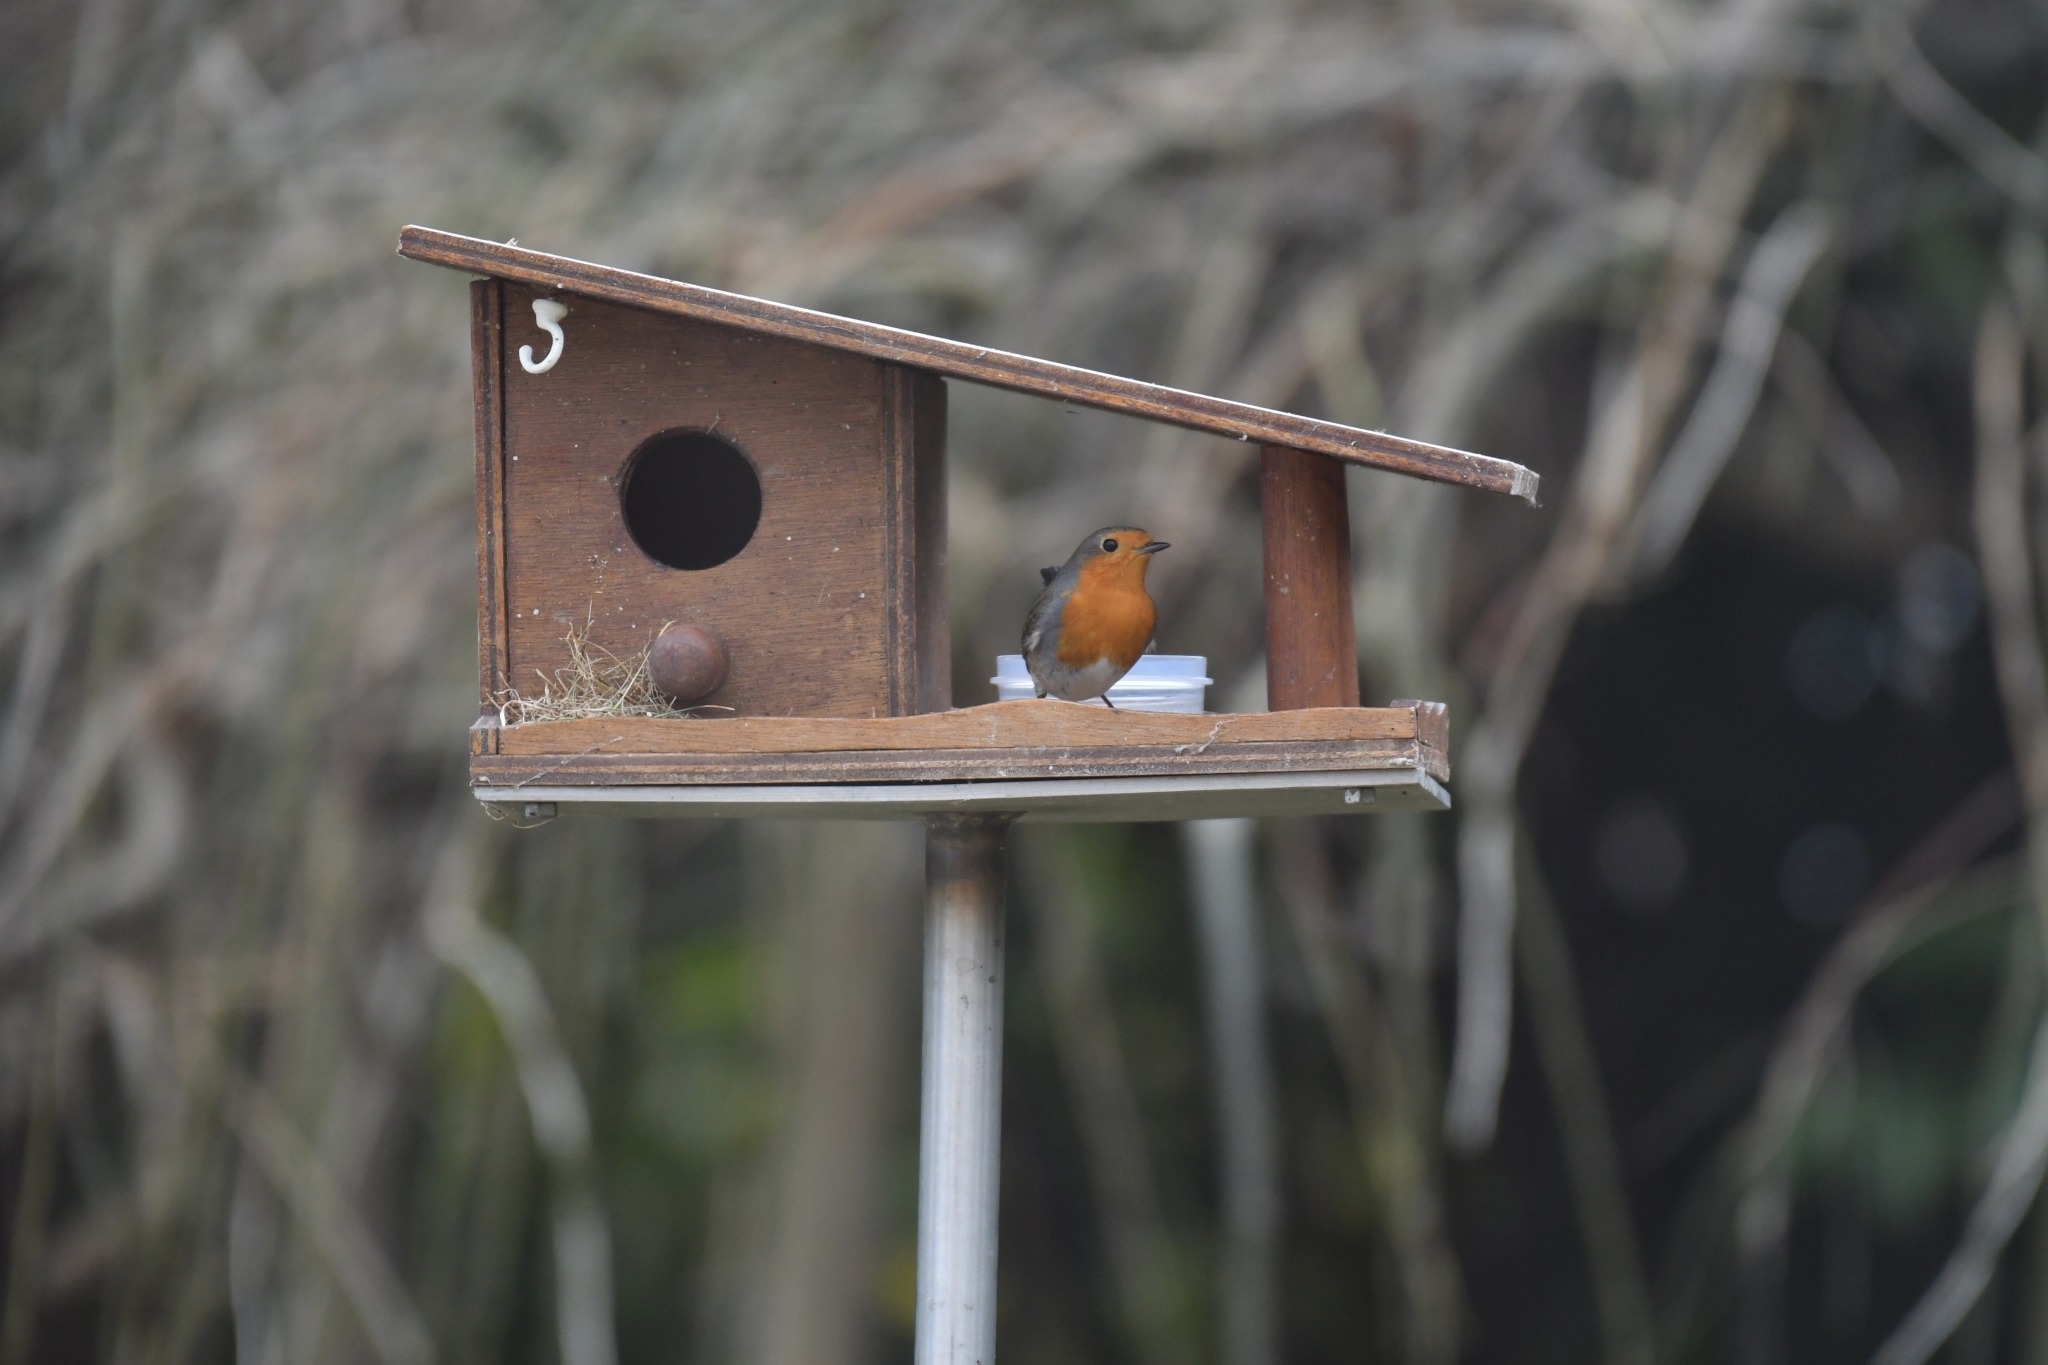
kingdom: Animalia
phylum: Chordata
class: Aves
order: Passeriformes
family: Muscicapidae
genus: Erithacus
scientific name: Erithacus rubecula
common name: European robin
